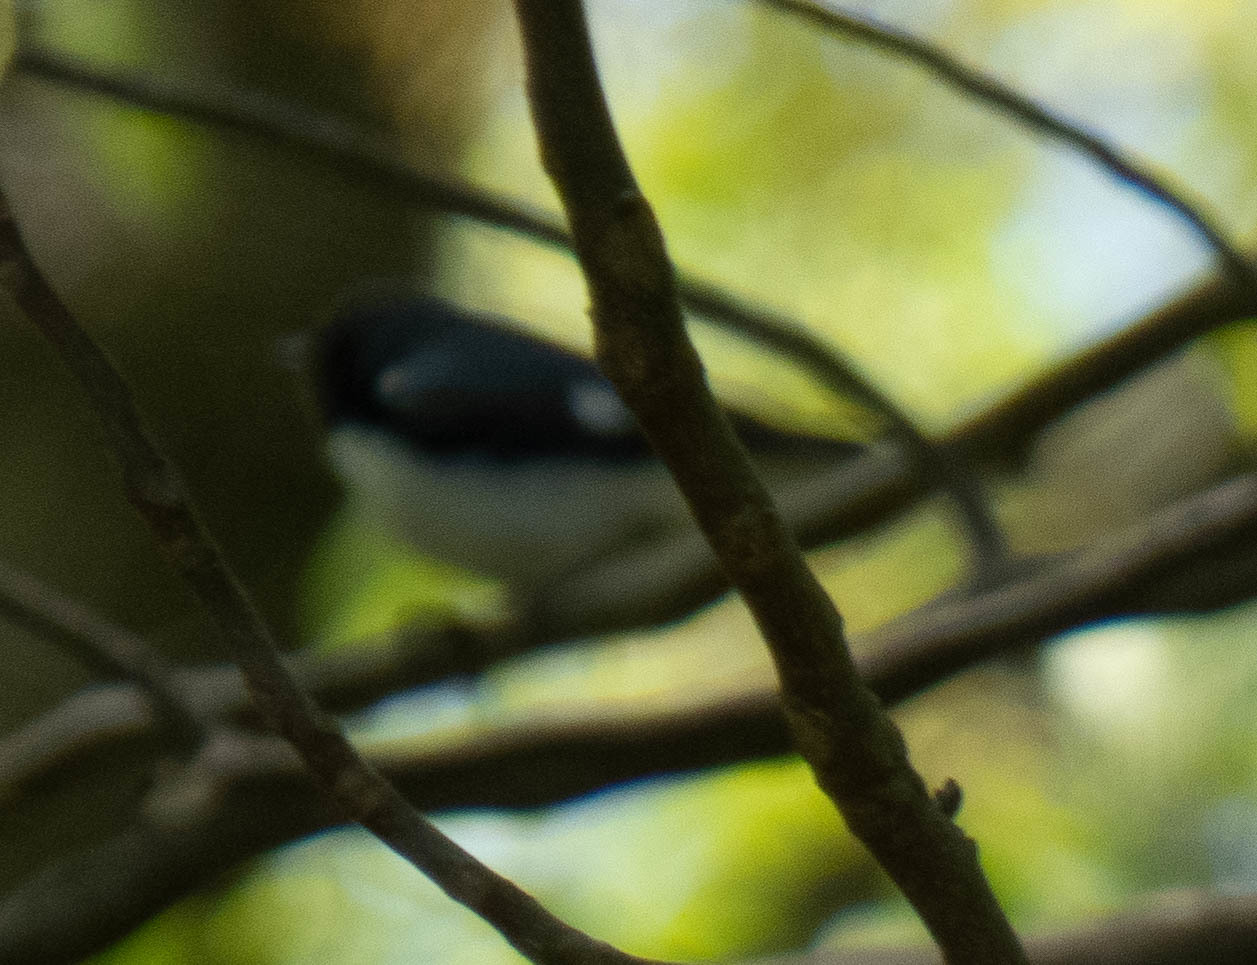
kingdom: Animalia
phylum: Chordata
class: Aves
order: Passeriformes
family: Parulidae
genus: Setophaga
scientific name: Setophaga caerulescens
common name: Black-throated blue warbler
